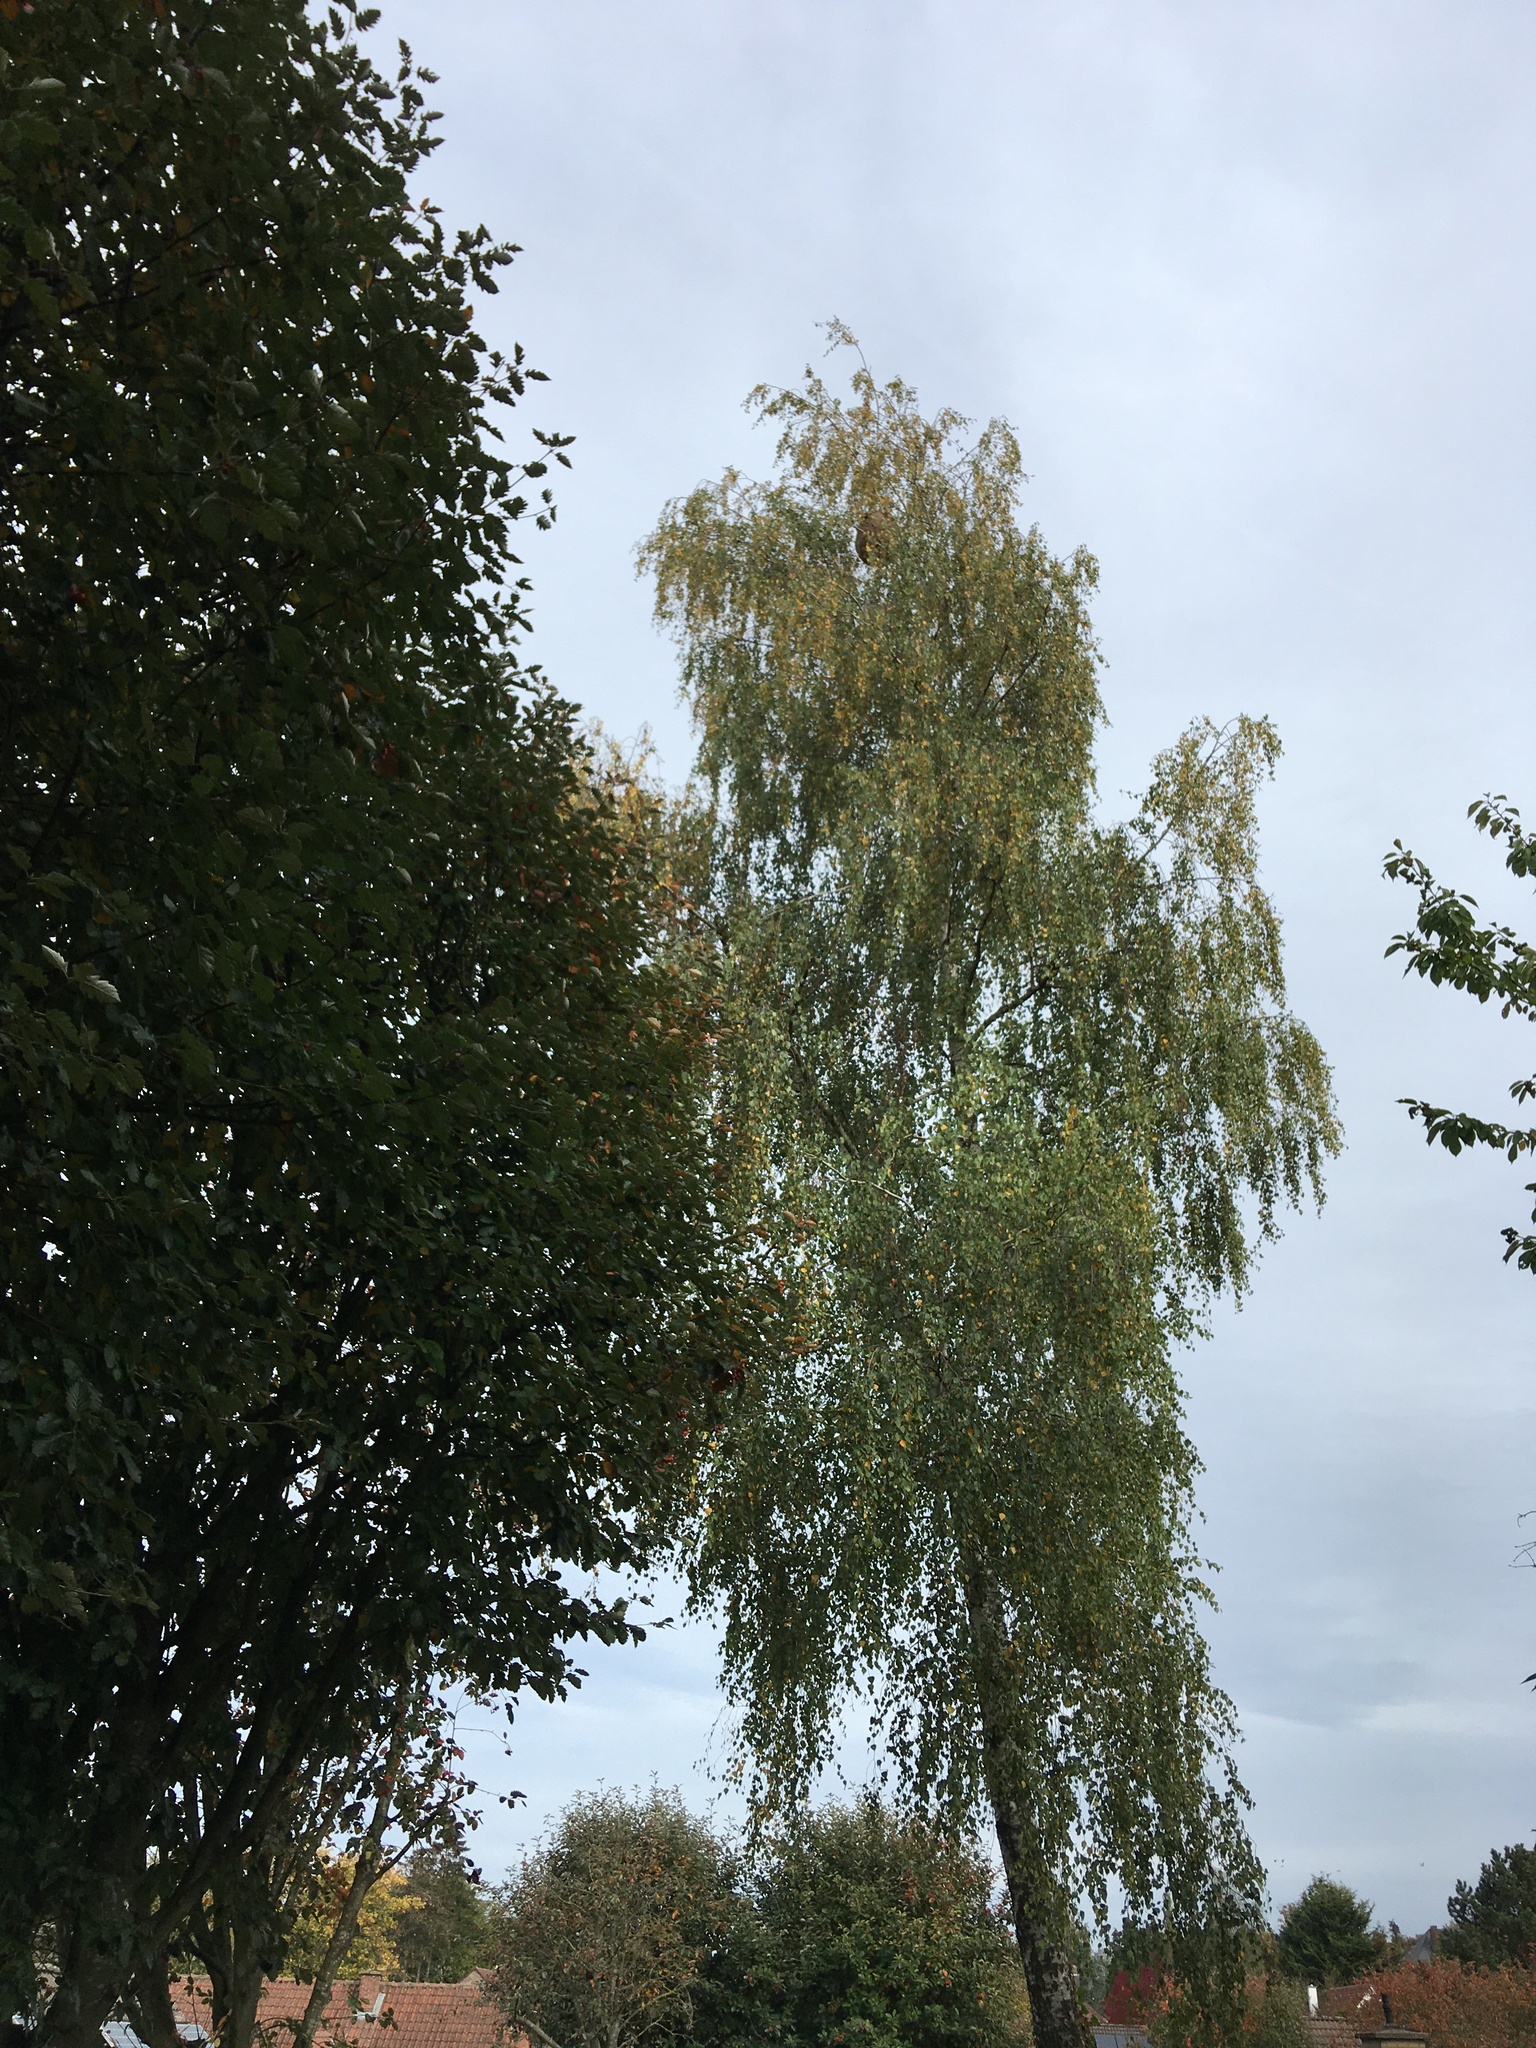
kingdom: Animalia
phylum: Arthropoda
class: Insecta
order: Hymenoptera
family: Vespidae
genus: Vespa
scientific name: Vespa velutina
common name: Asian hornet
